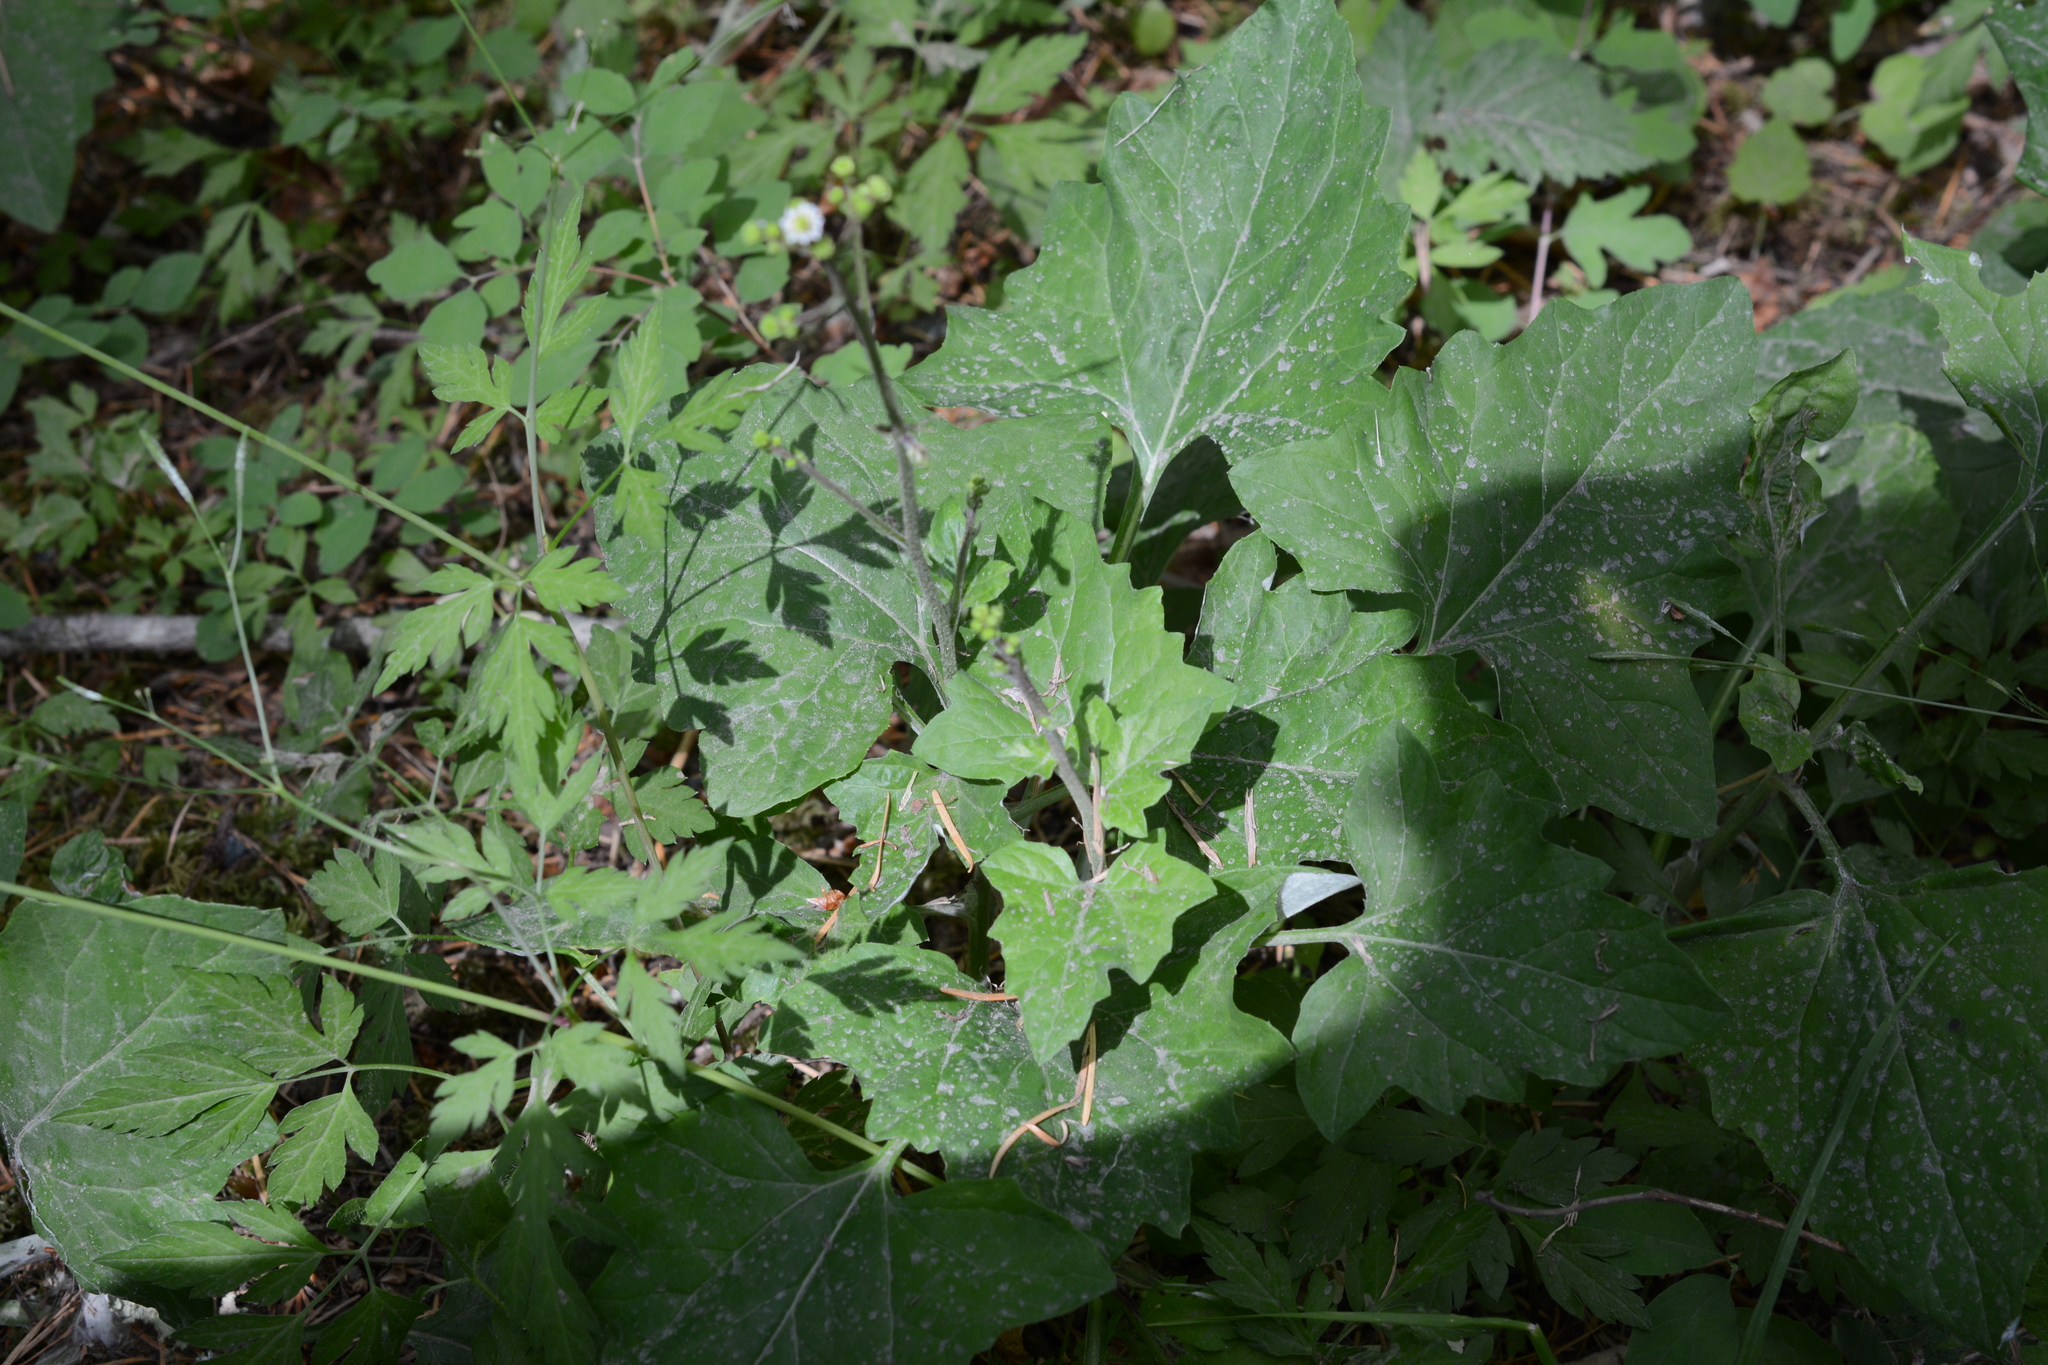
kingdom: Plantae
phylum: Tracheophyta
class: Magnoliopsida
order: Asterales
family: Asteraceae
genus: Adenocaulon
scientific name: Adenocaulon bicolor
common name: Trailplant
